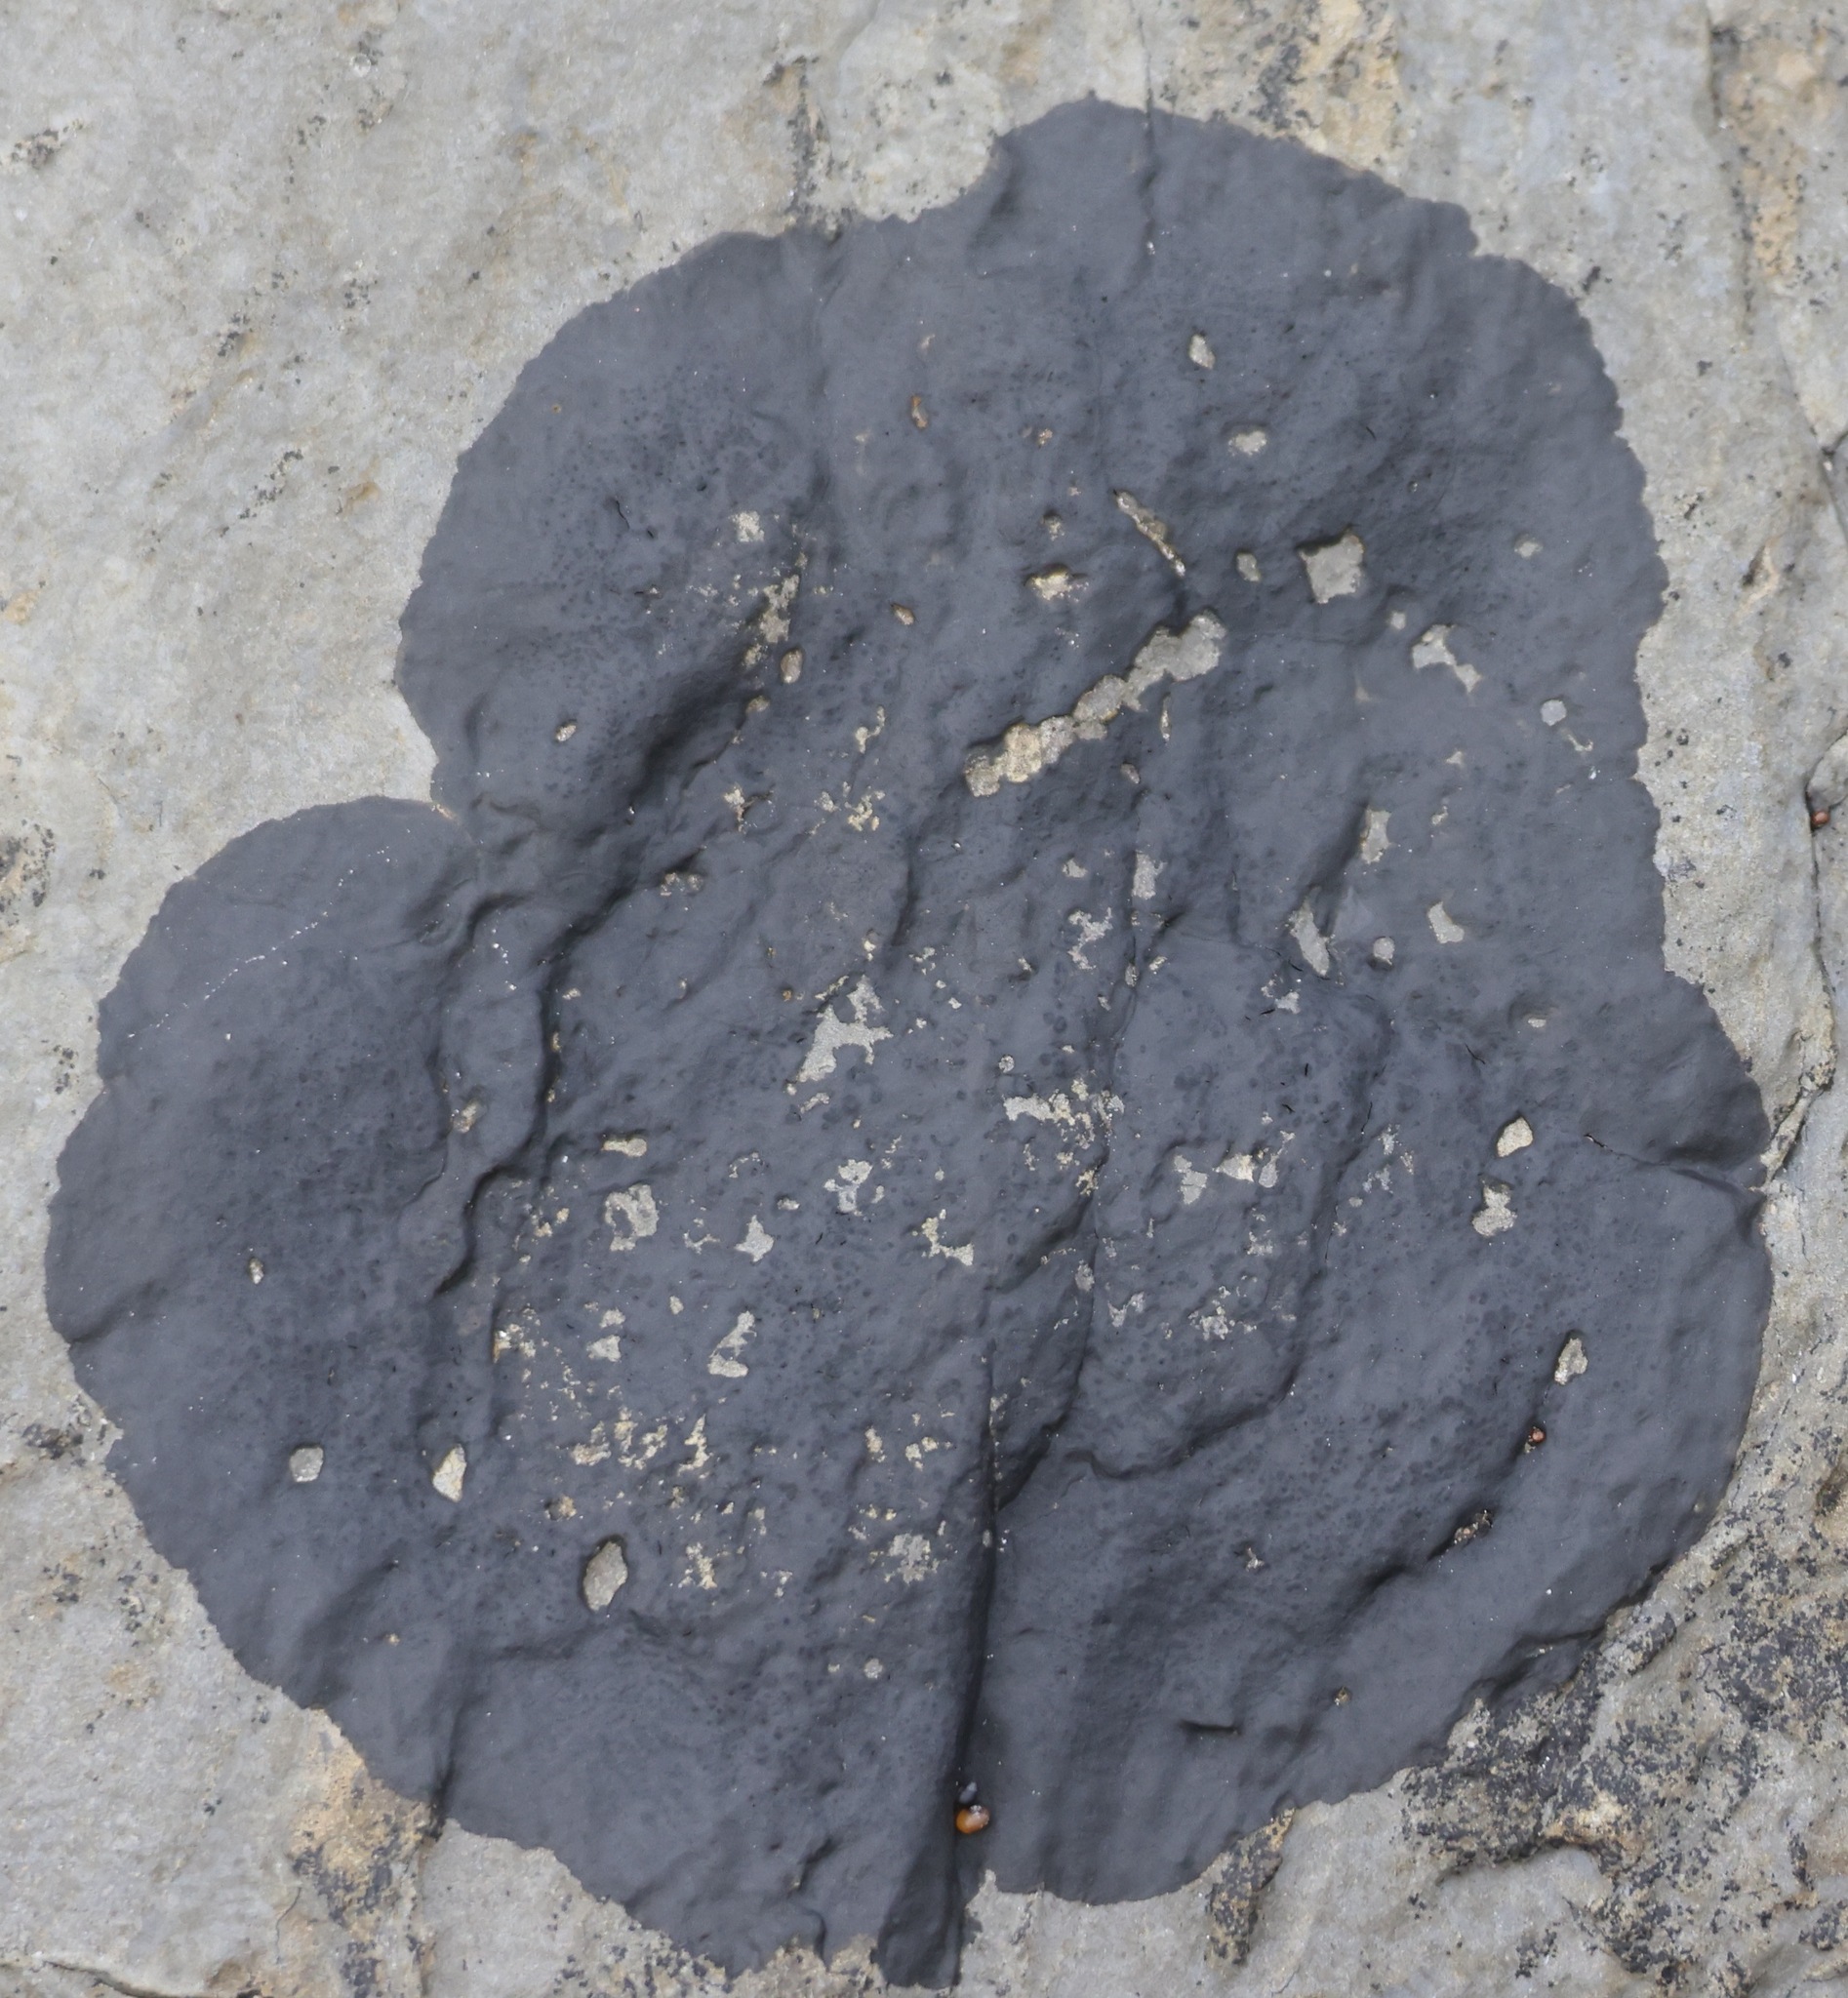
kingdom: Fungi
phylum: Ascomycota
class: Eurotiomycetes
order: Verrucariales
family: Verrucariaceae
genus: Wahlenbergiella
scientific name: Wahlenbergiella mucosa
